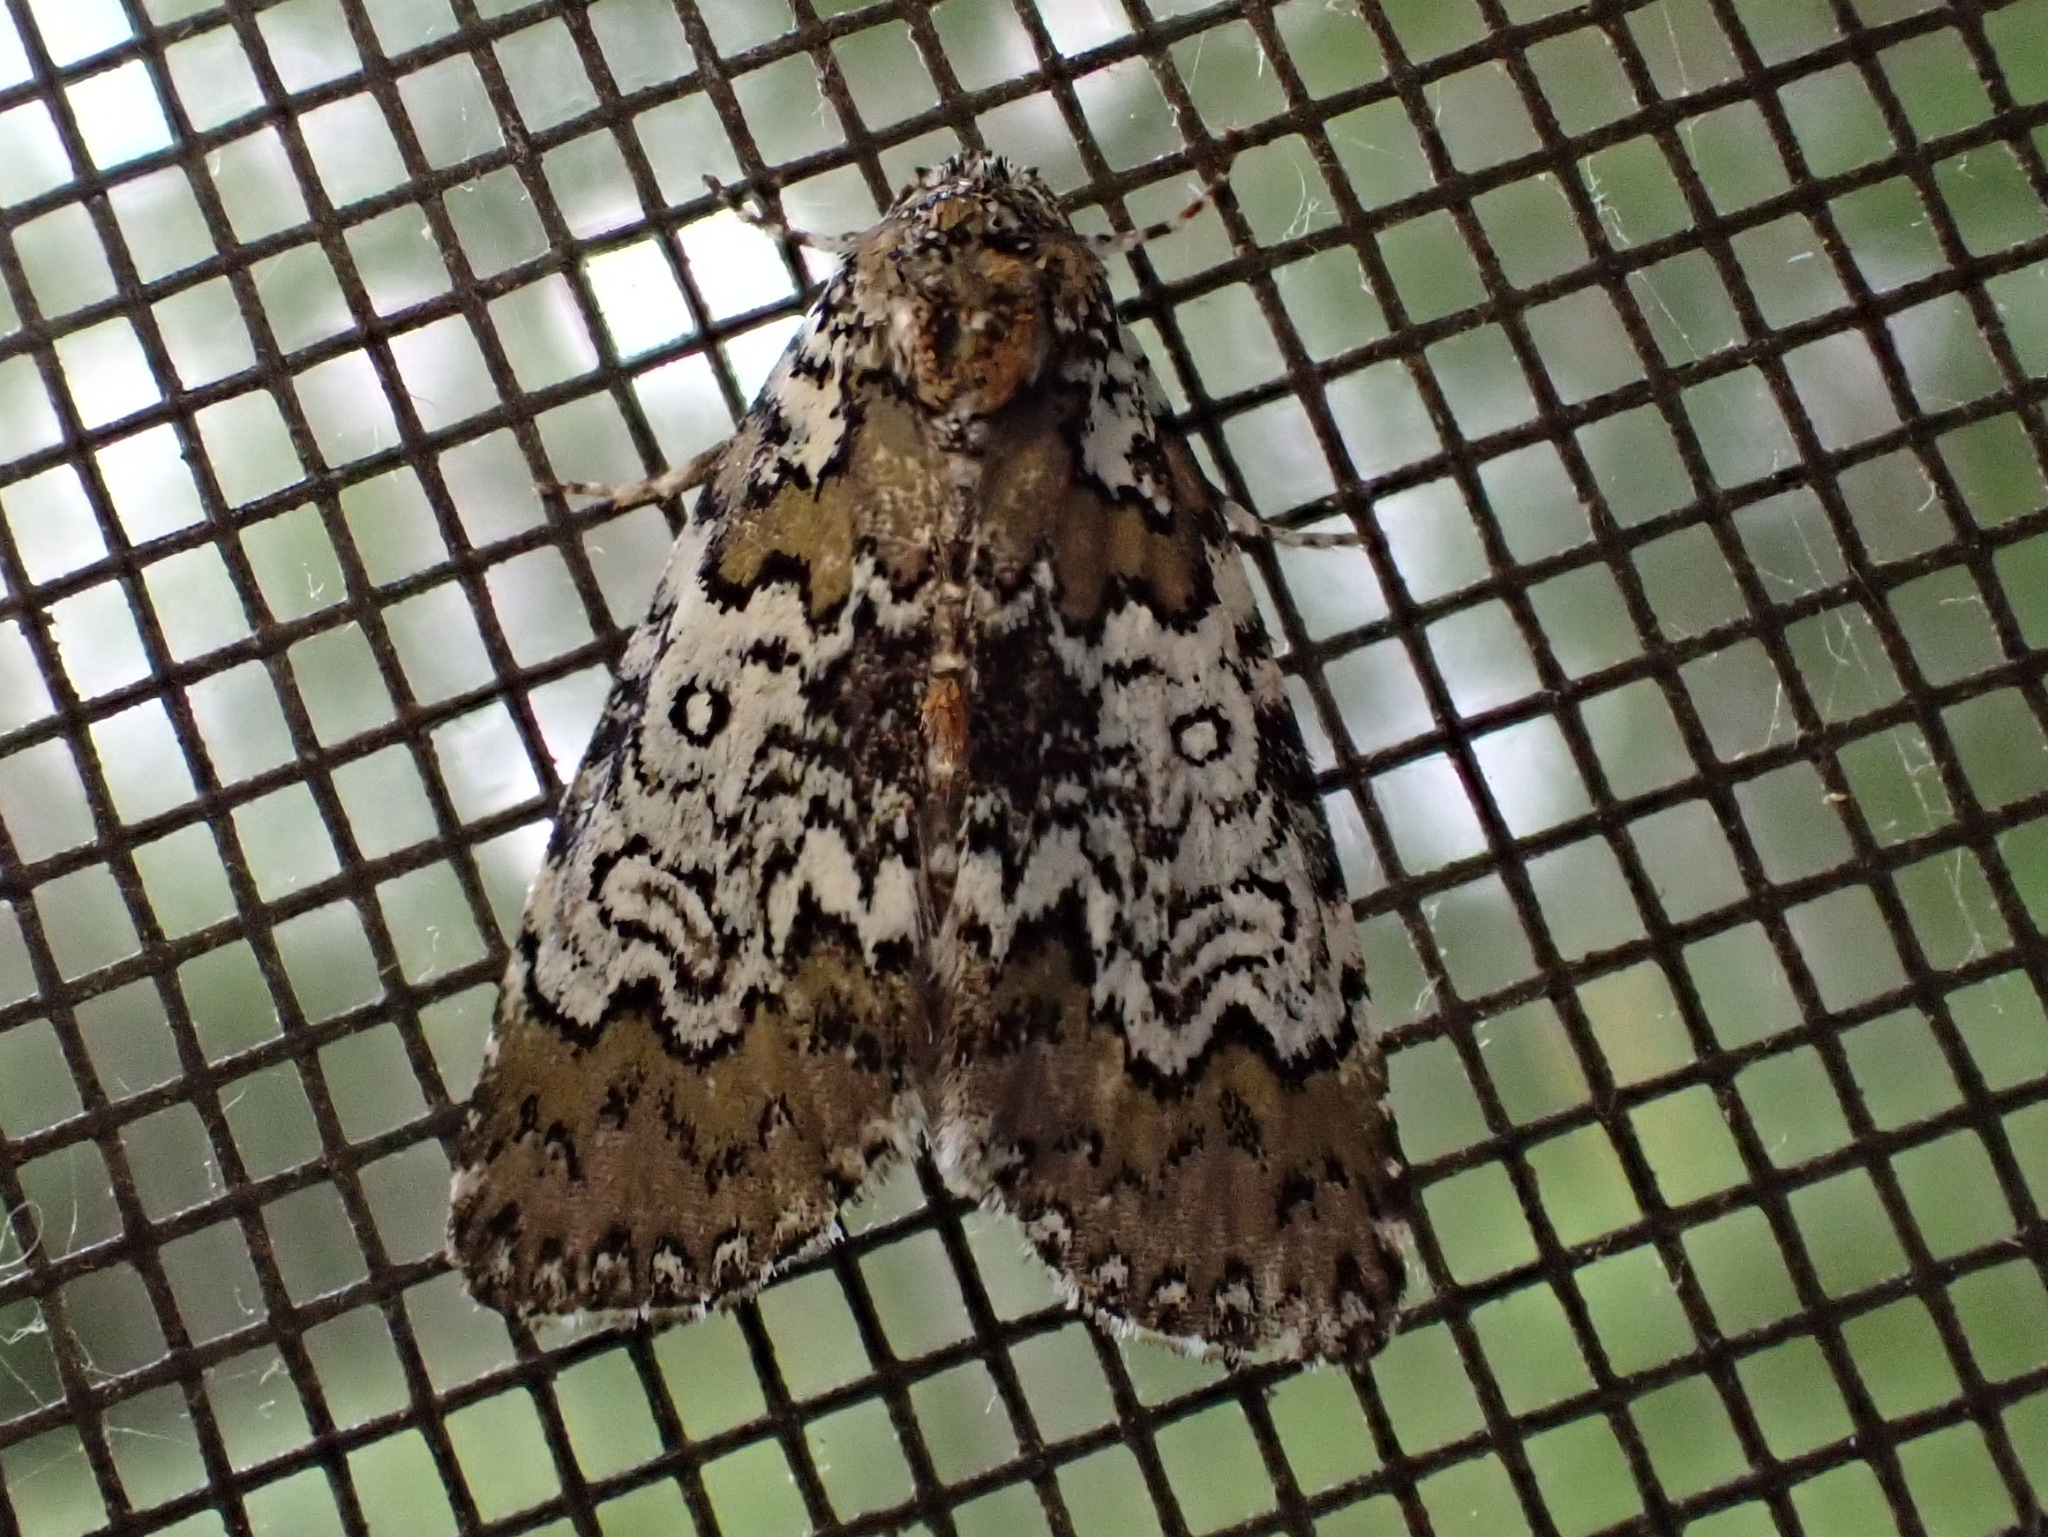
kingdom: Animalia
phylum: Arthropoda
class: Insecta
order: Lepidoptera
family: Noctuidae
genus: Cerma
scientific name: Cerma cora
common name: Bird dropping moth
